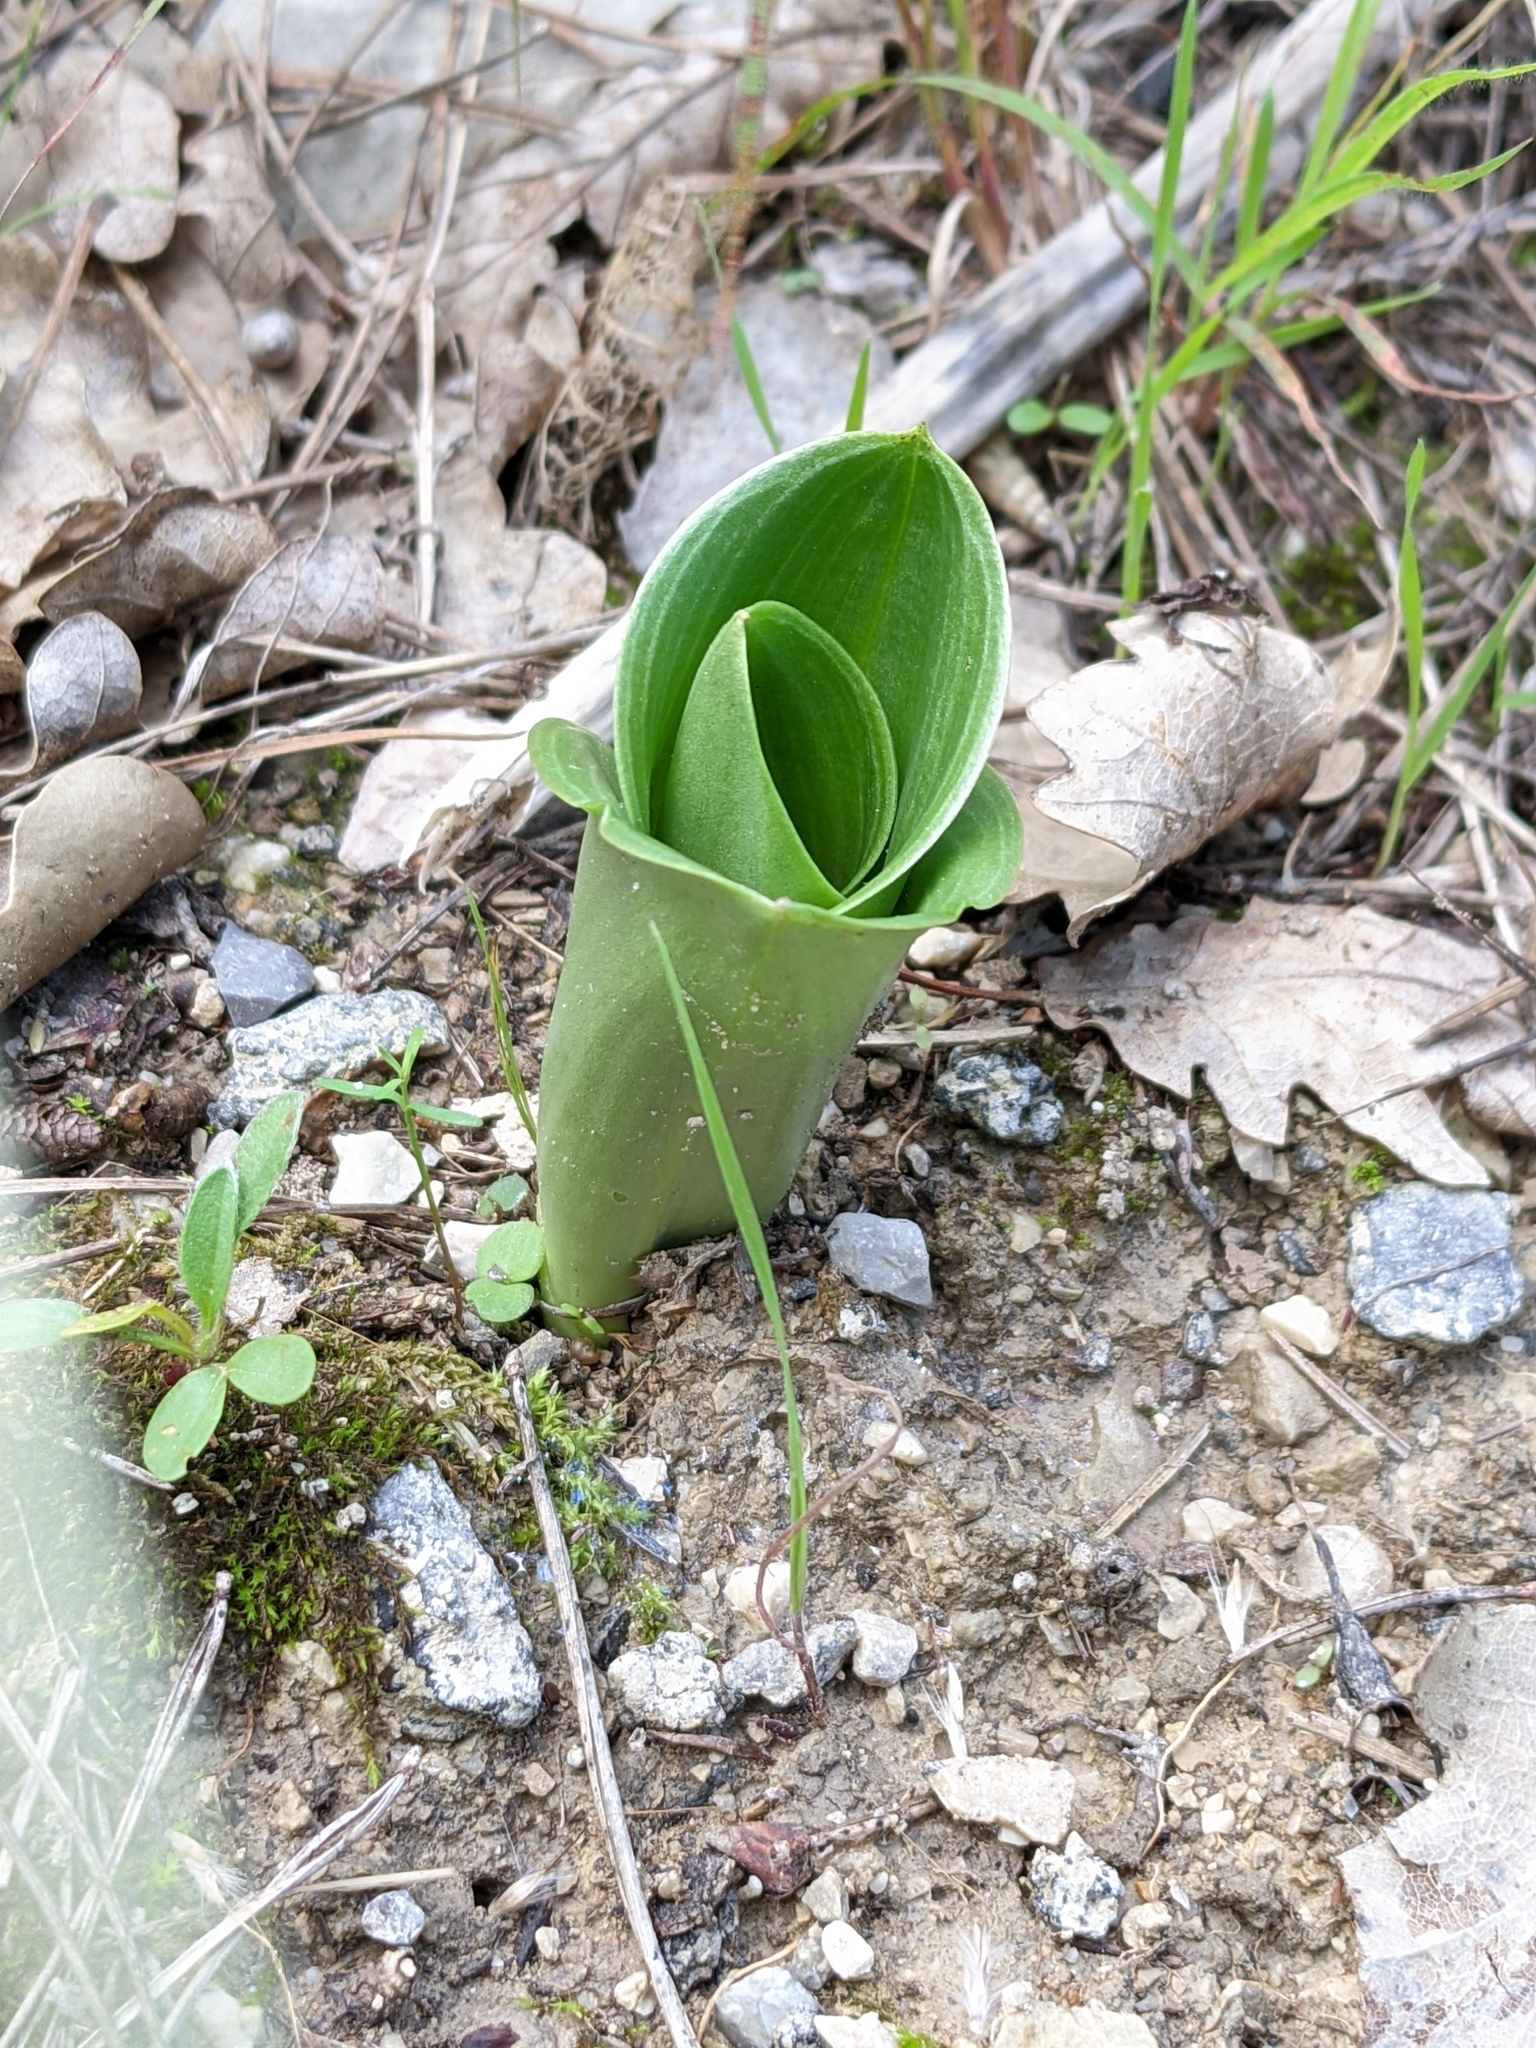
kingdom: Plantae
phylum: Tracheophyta
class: Liliopsida
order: Asparagales
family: Orchidaceae
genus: Himantoglossum
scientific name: Himantoglossum robertianum
